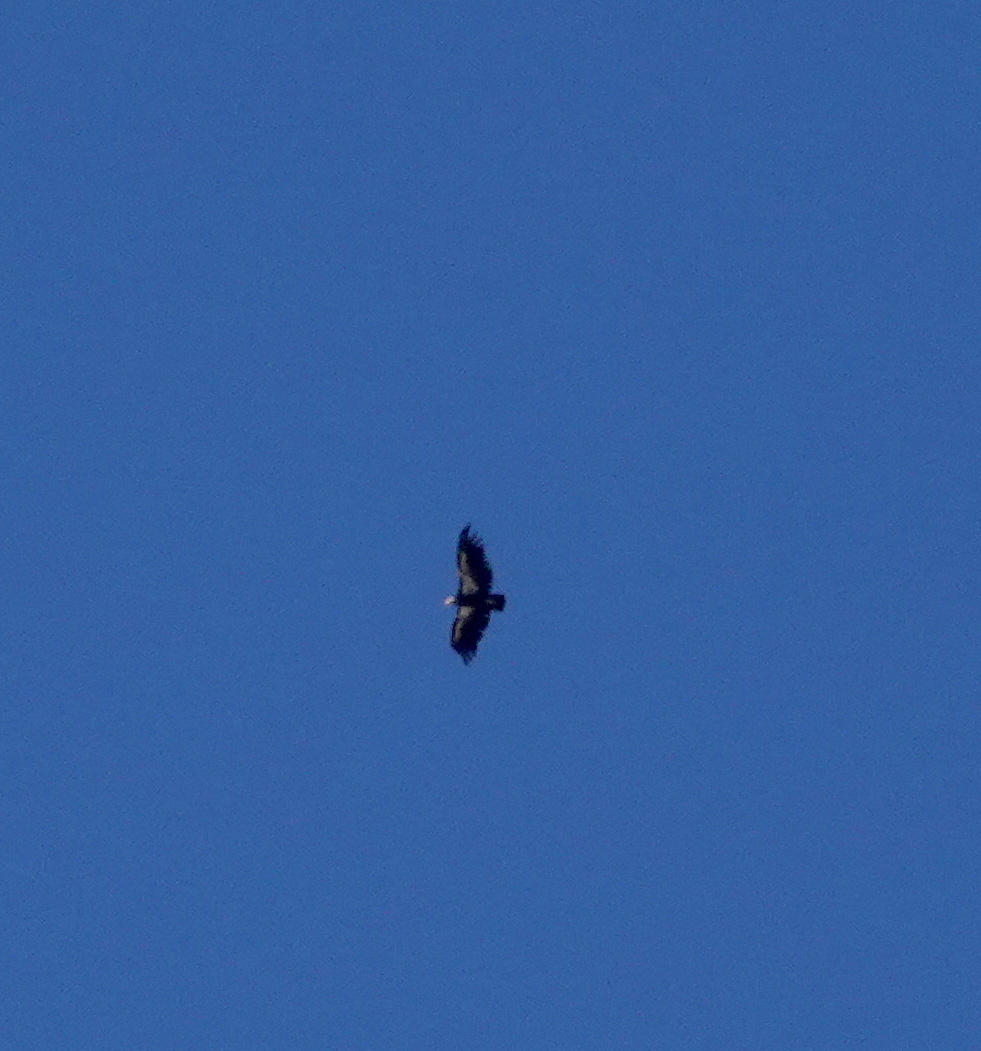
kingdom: Animalia
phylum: Chordata
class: Aves
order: Accipitriformes
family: Cathartidae
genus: Gymnogyps
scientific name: Gymnogyps californianus
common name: California condor
